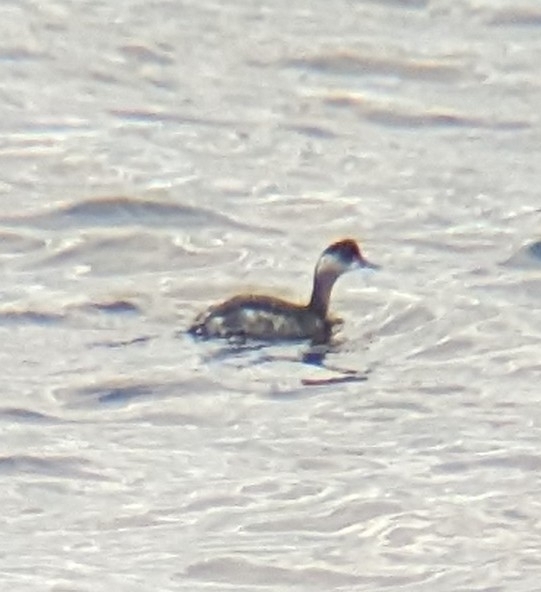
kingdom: Animalia
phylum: Chordata
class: Aves
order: Podicipediformes
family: Podicipedidae
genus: Podiceps
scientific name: Podiceps nigricollis
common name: Black-necked grebe
